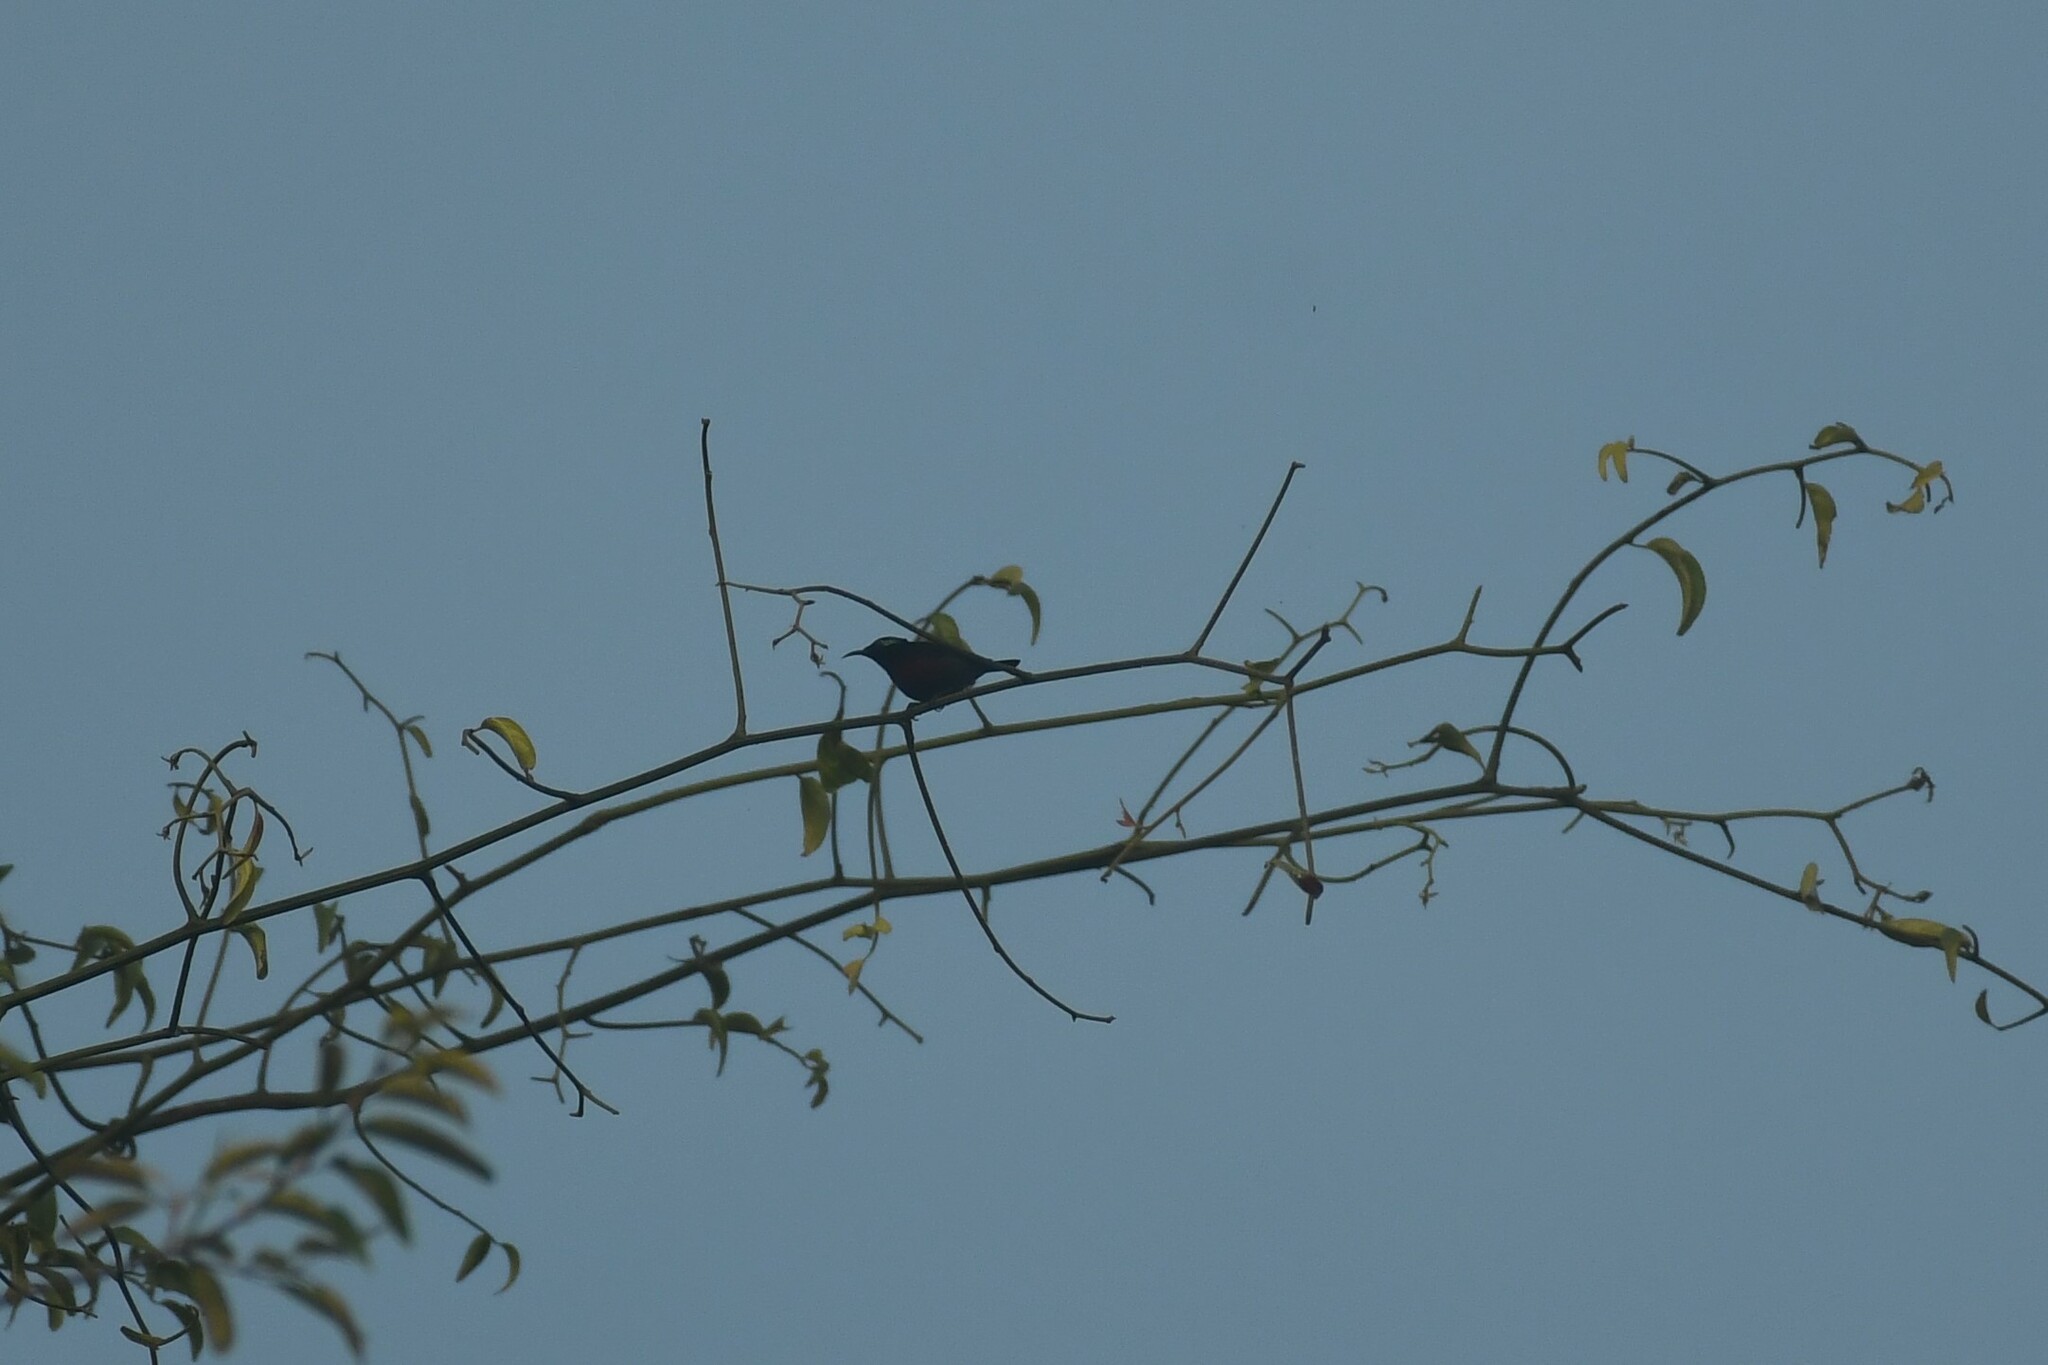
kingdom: Animalia
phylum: Chordata
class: Aves
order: Passeriformes
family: Nectariniidae
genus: Leptocoma
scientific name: Leptocoma brasiliana
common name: Van hasselt's sunbird
